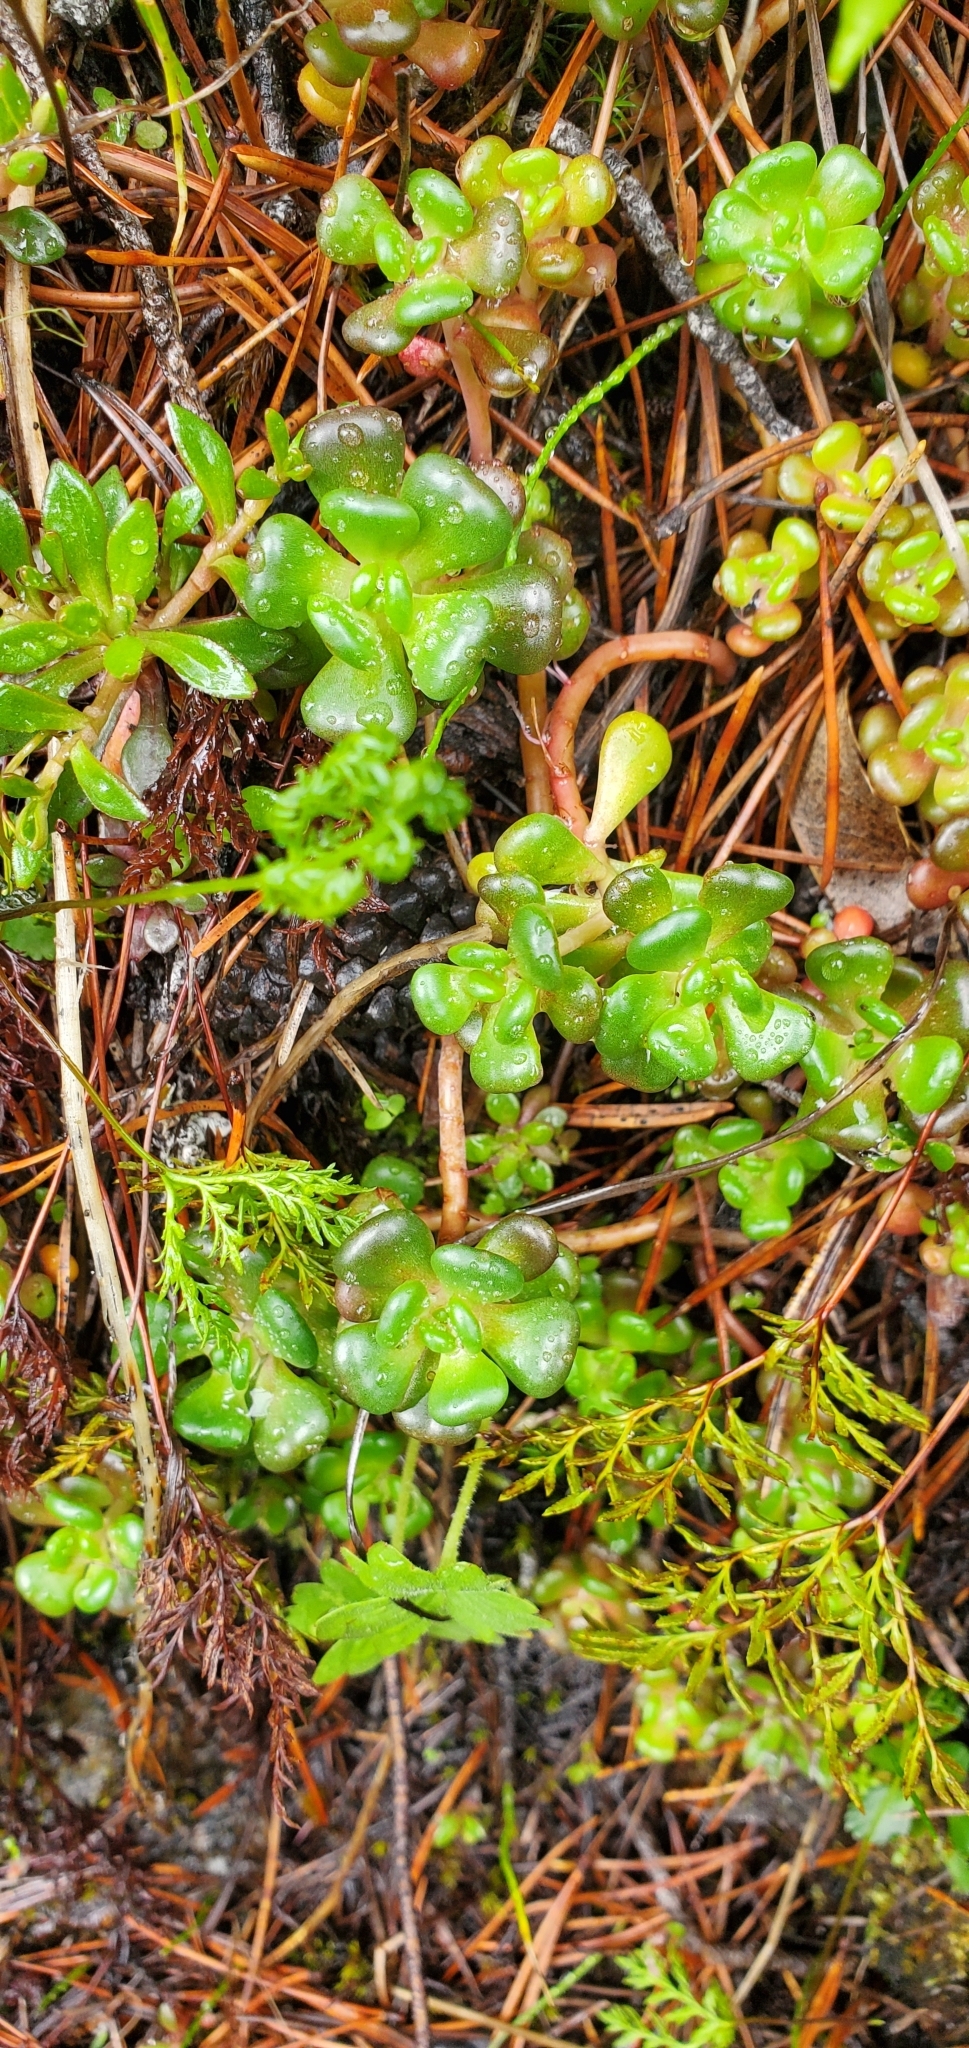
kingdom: Plantae
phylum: Tracheophyta
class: Magnoliopsida
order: Saxifragales
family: Crassulaceae
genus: Sedum
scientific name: Sedum oreganum
